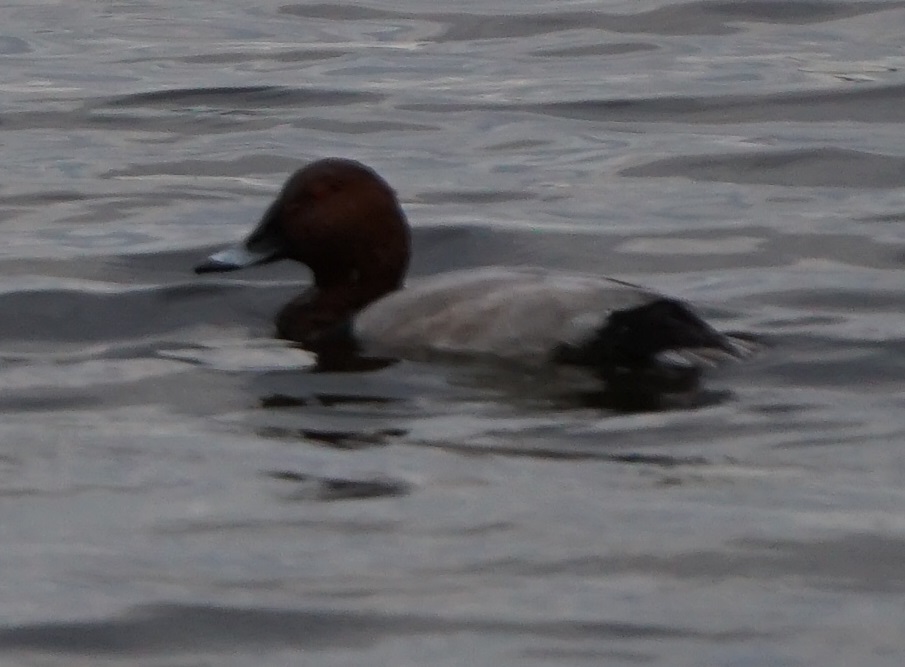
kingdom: Animalia
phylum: Chordata
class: Aves
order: Anseriformes
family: Anatidae
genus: Aythya
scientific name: Aythya ferina
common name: Common pochard
